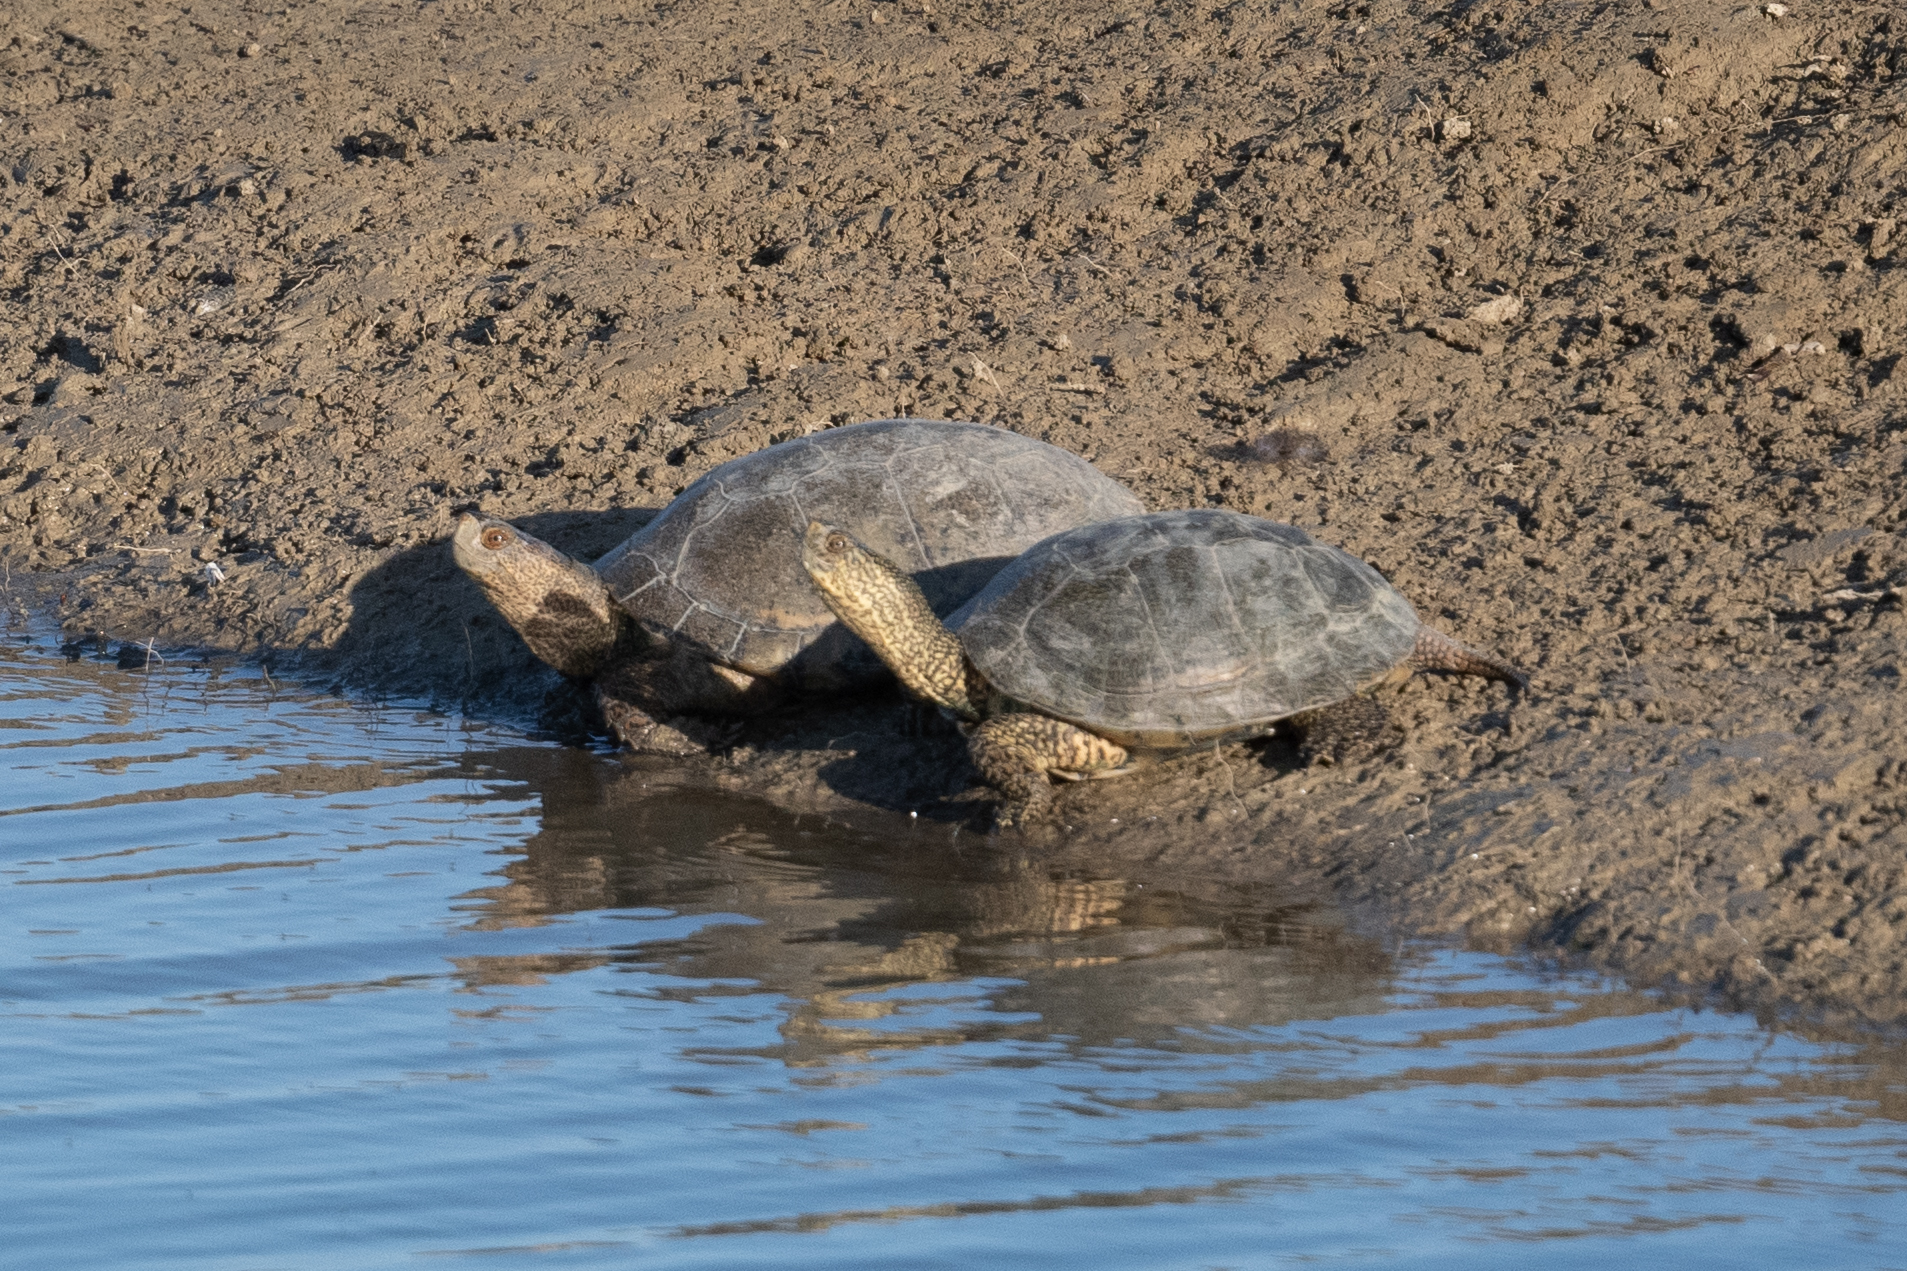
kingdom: Animalia
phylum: Chordata
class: Testudines
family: Emydidae
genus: Actinemys
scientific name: Actinemys marmorata
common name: Western pond turtle
